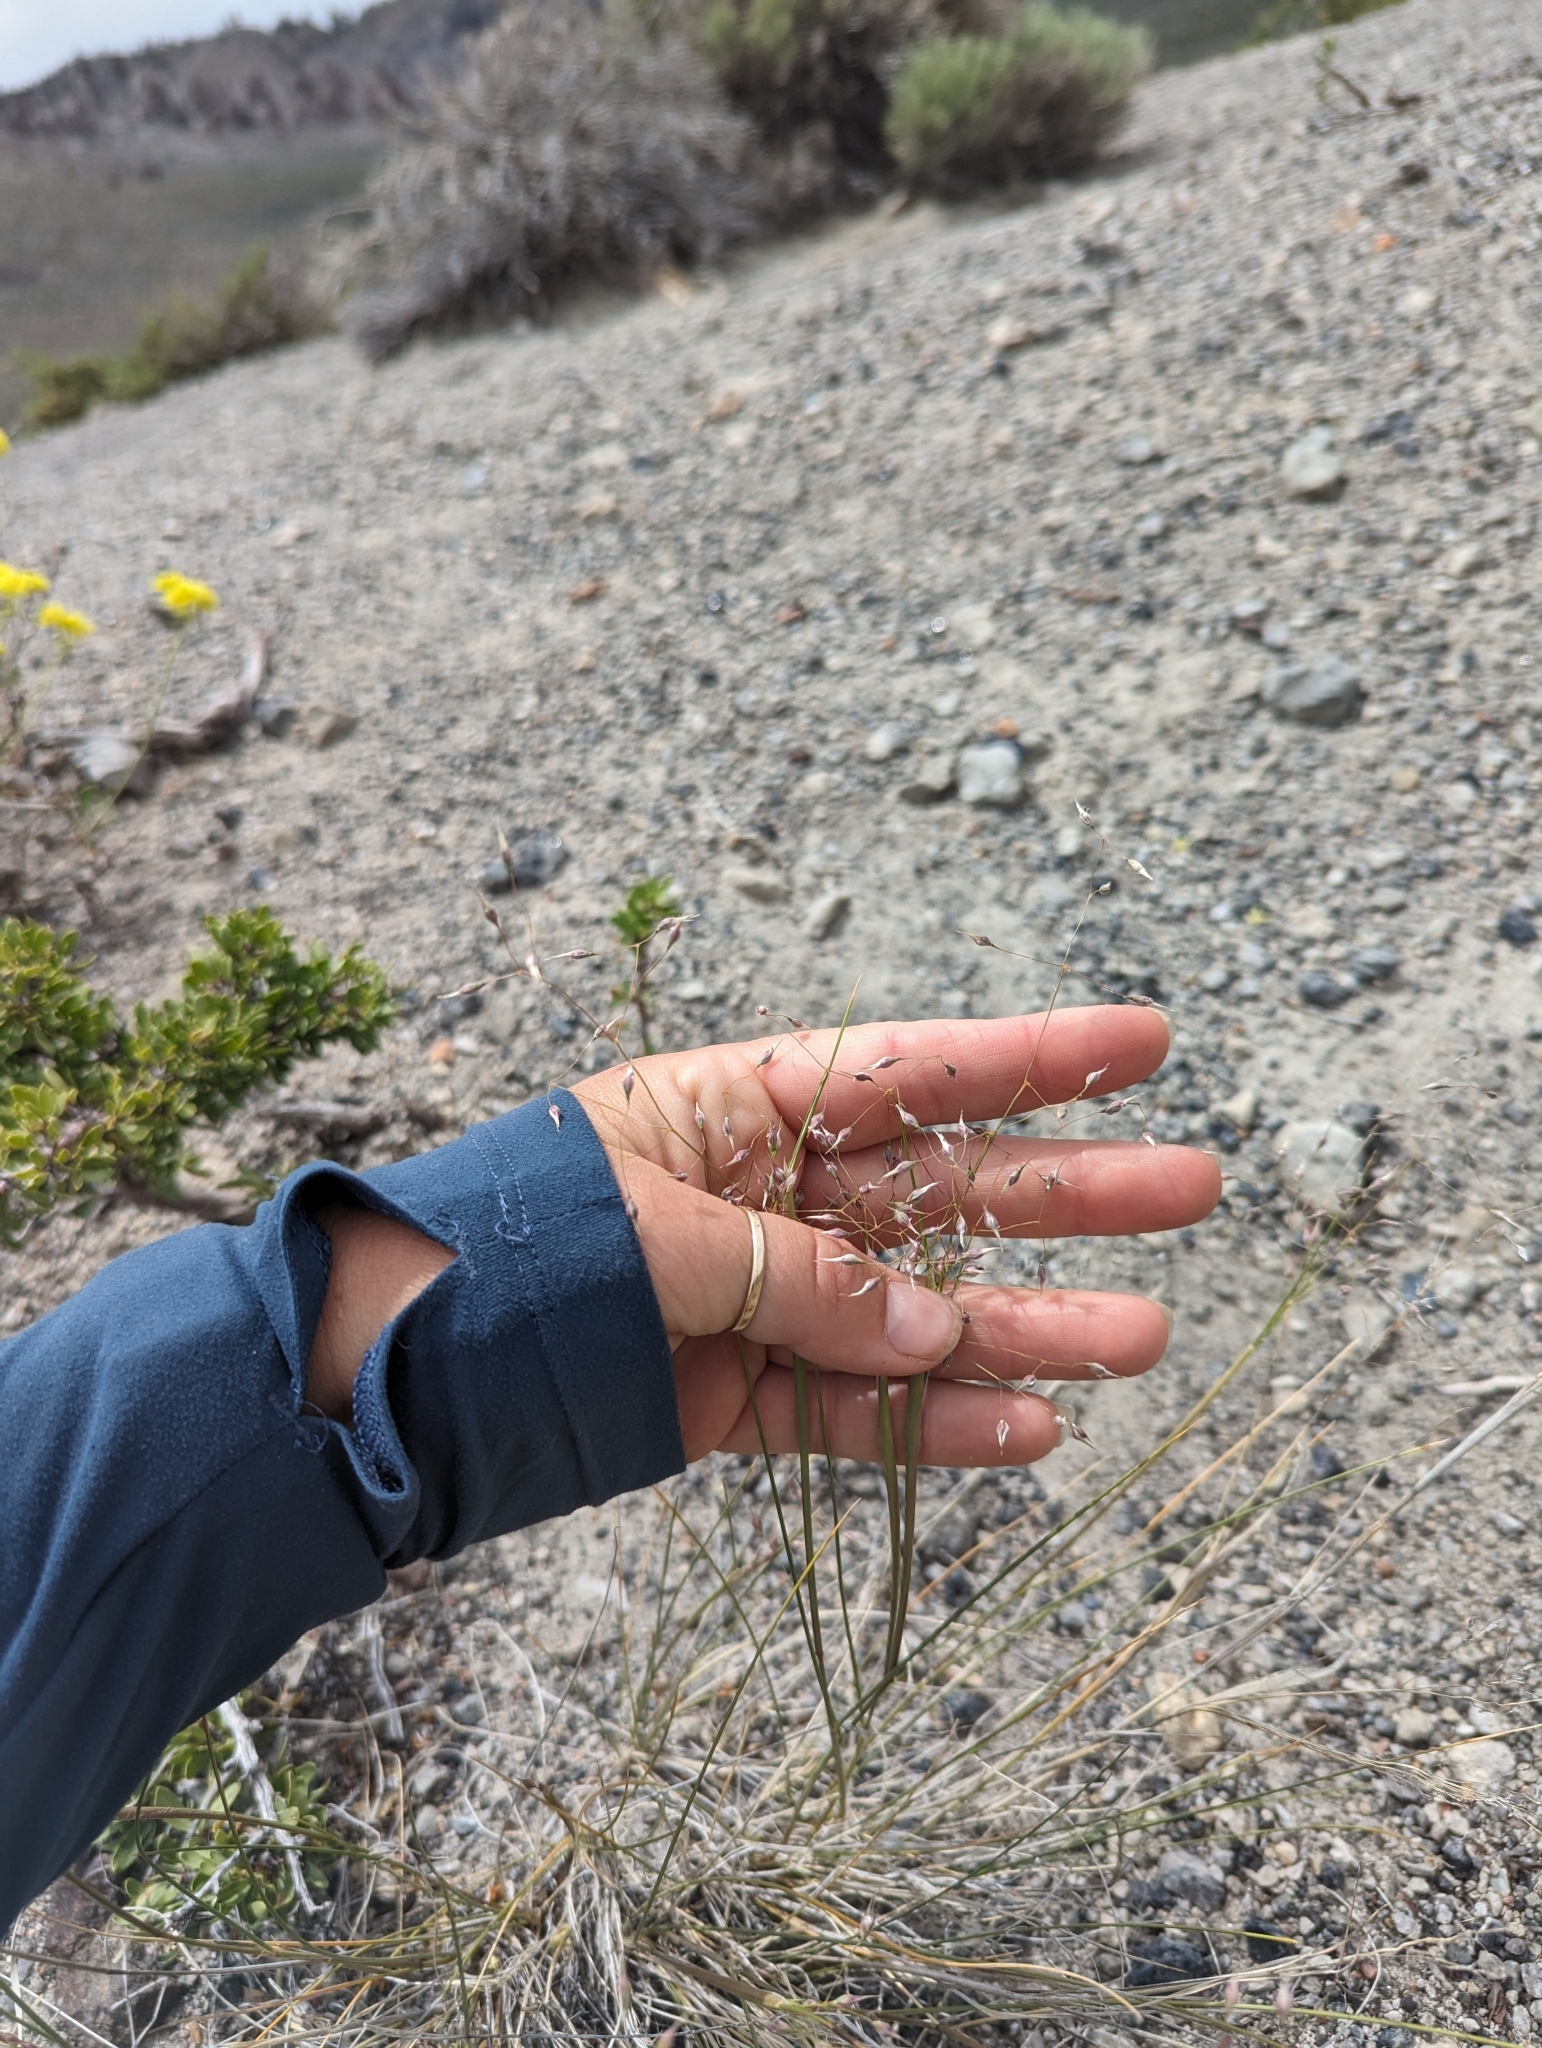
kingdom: Plantae
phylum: Tracheophyta
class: Liliopsida
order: Poales
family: Poaceae
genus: Eriocoma
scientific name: Eriocoma hymenoides
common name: Indian mountain ricegrass
